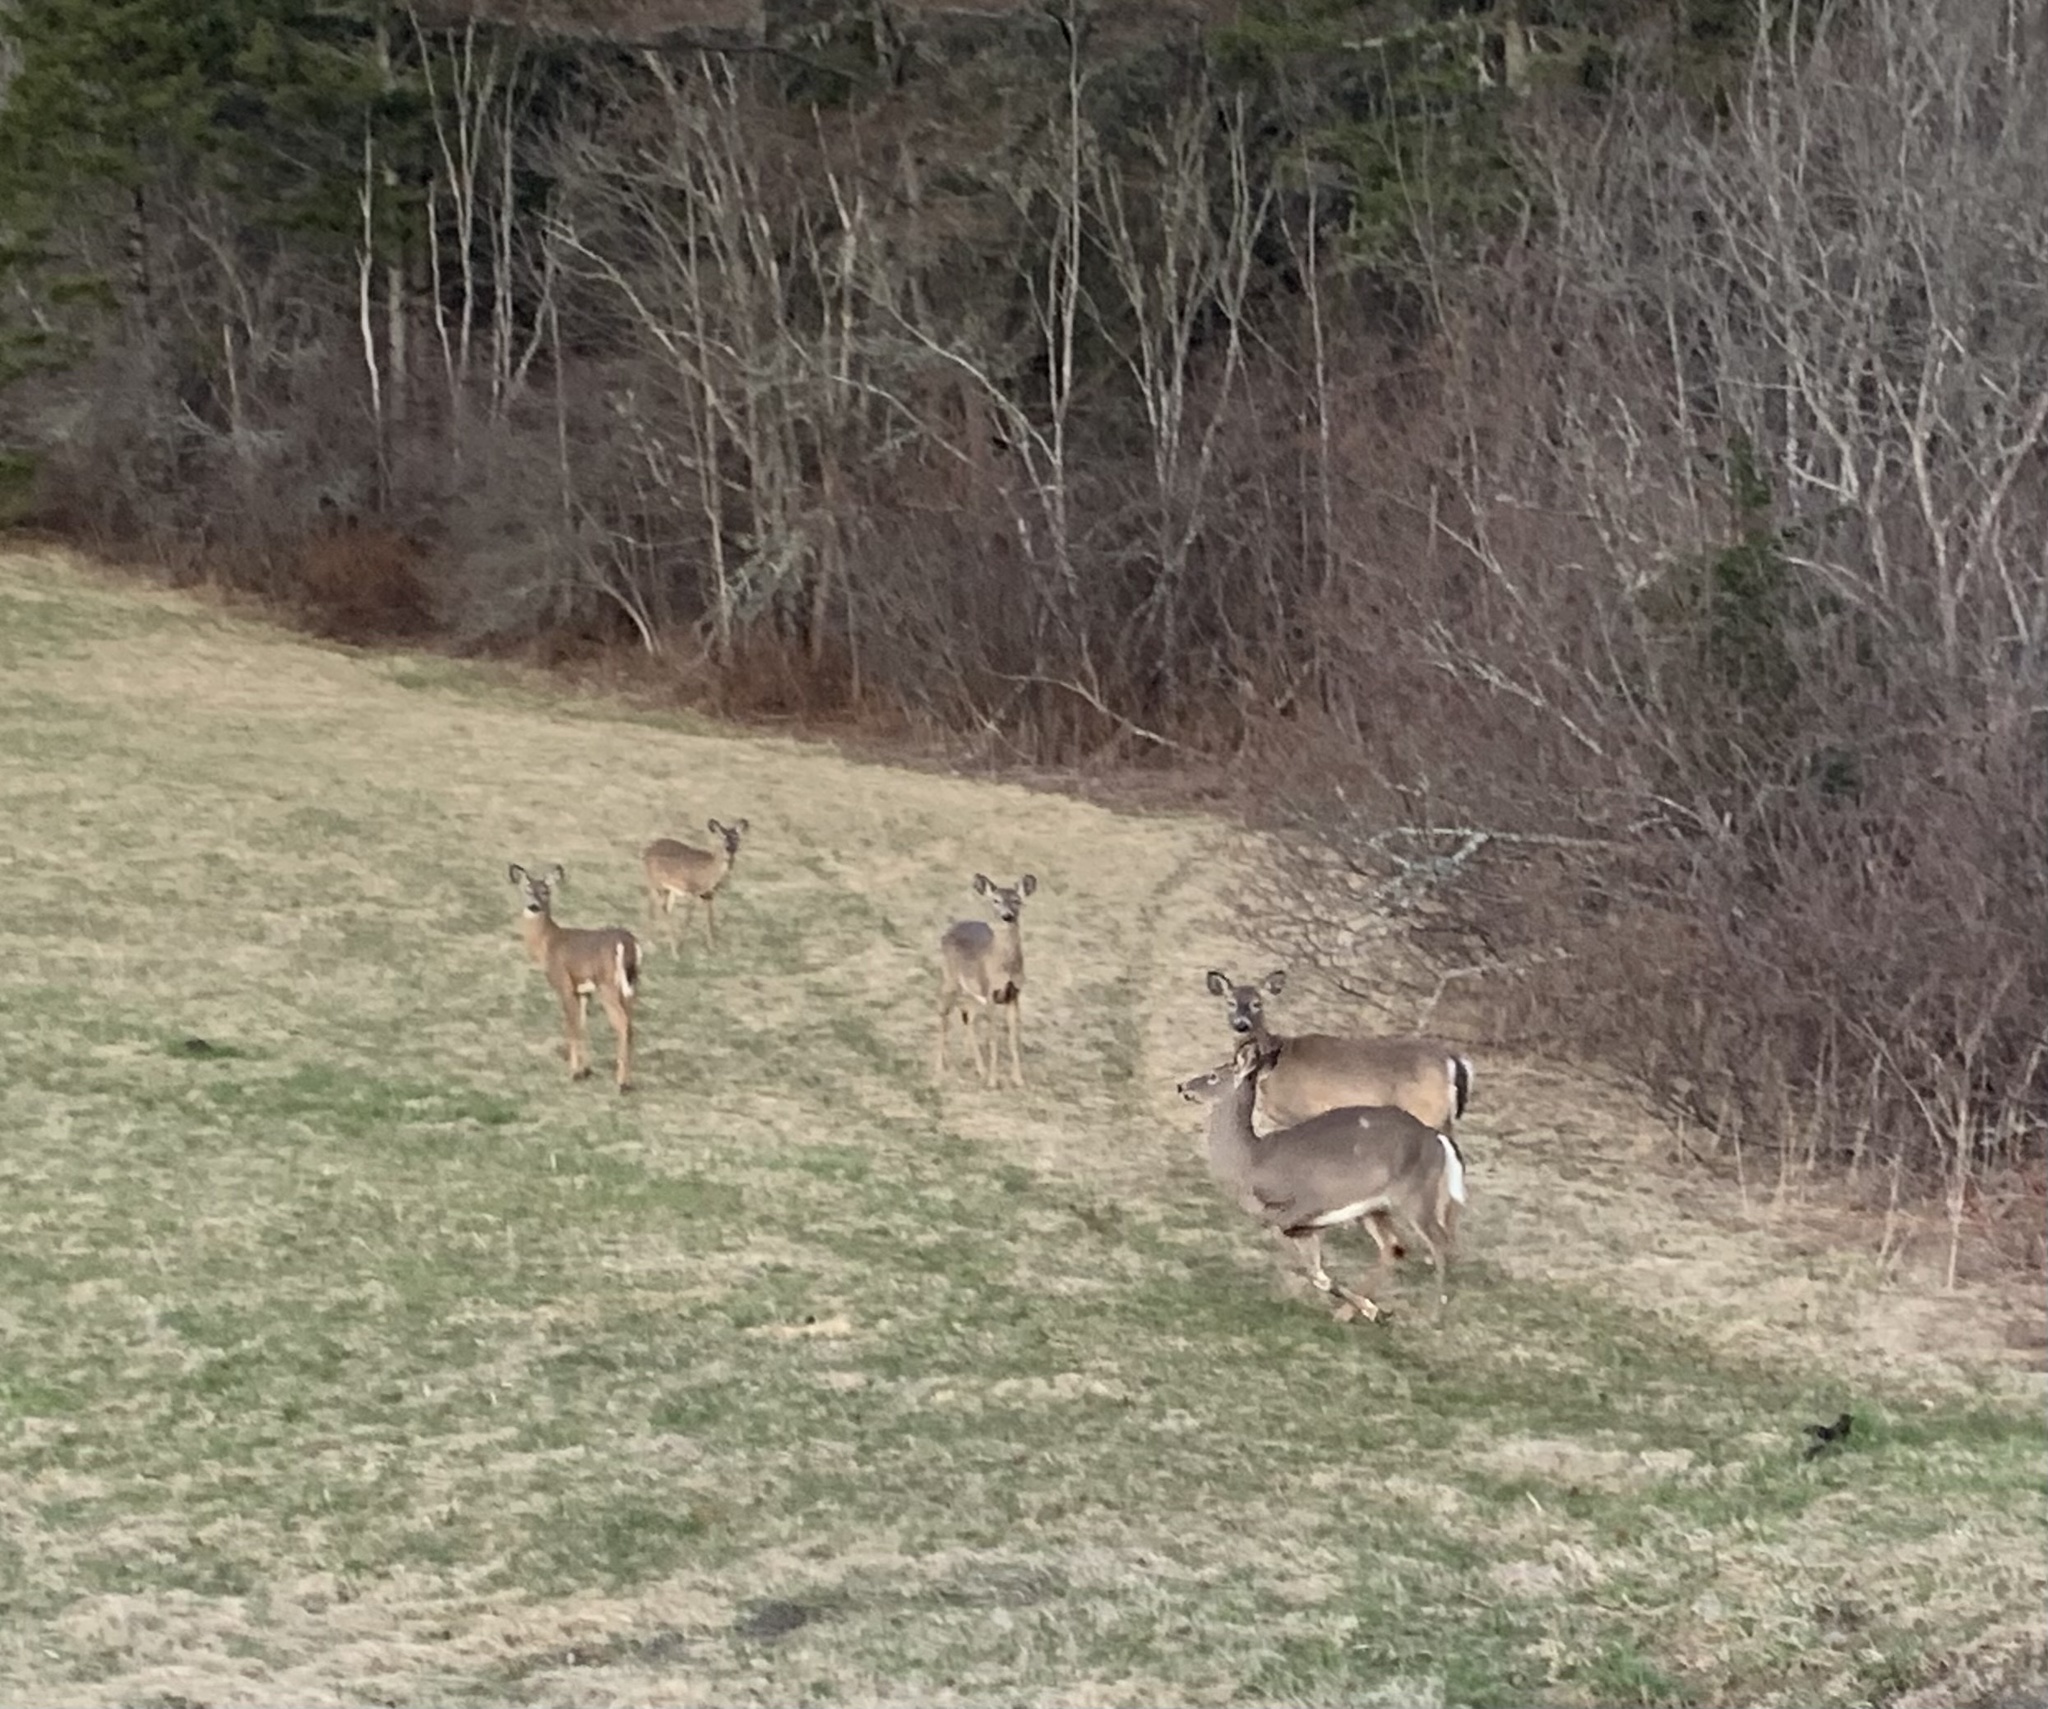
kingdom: Animalia
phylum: Chordata
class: Mammalia
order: Artiodactyla
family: Cervidae
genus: Odocoileus
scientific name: Odocoileus virginianus
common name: White-tailed deer
